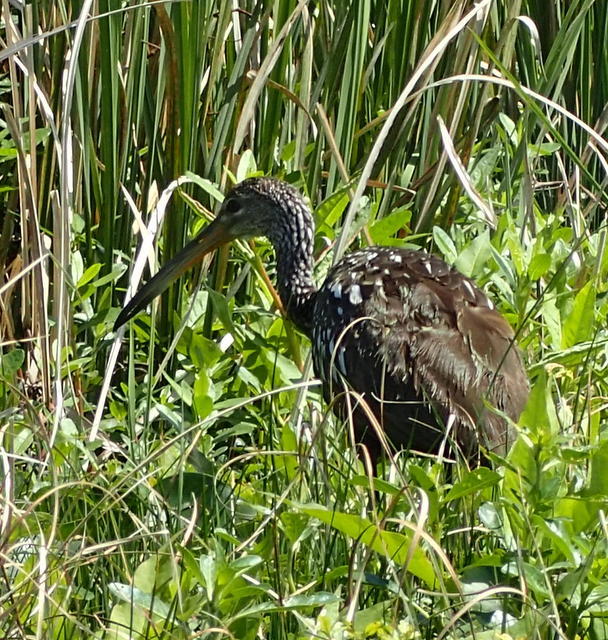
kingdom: Animalia
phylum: Chordata
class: Aves
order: Gruiformes
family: Aramidae
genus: Aramus
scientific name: Aramus guarauna
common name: Limpkin
